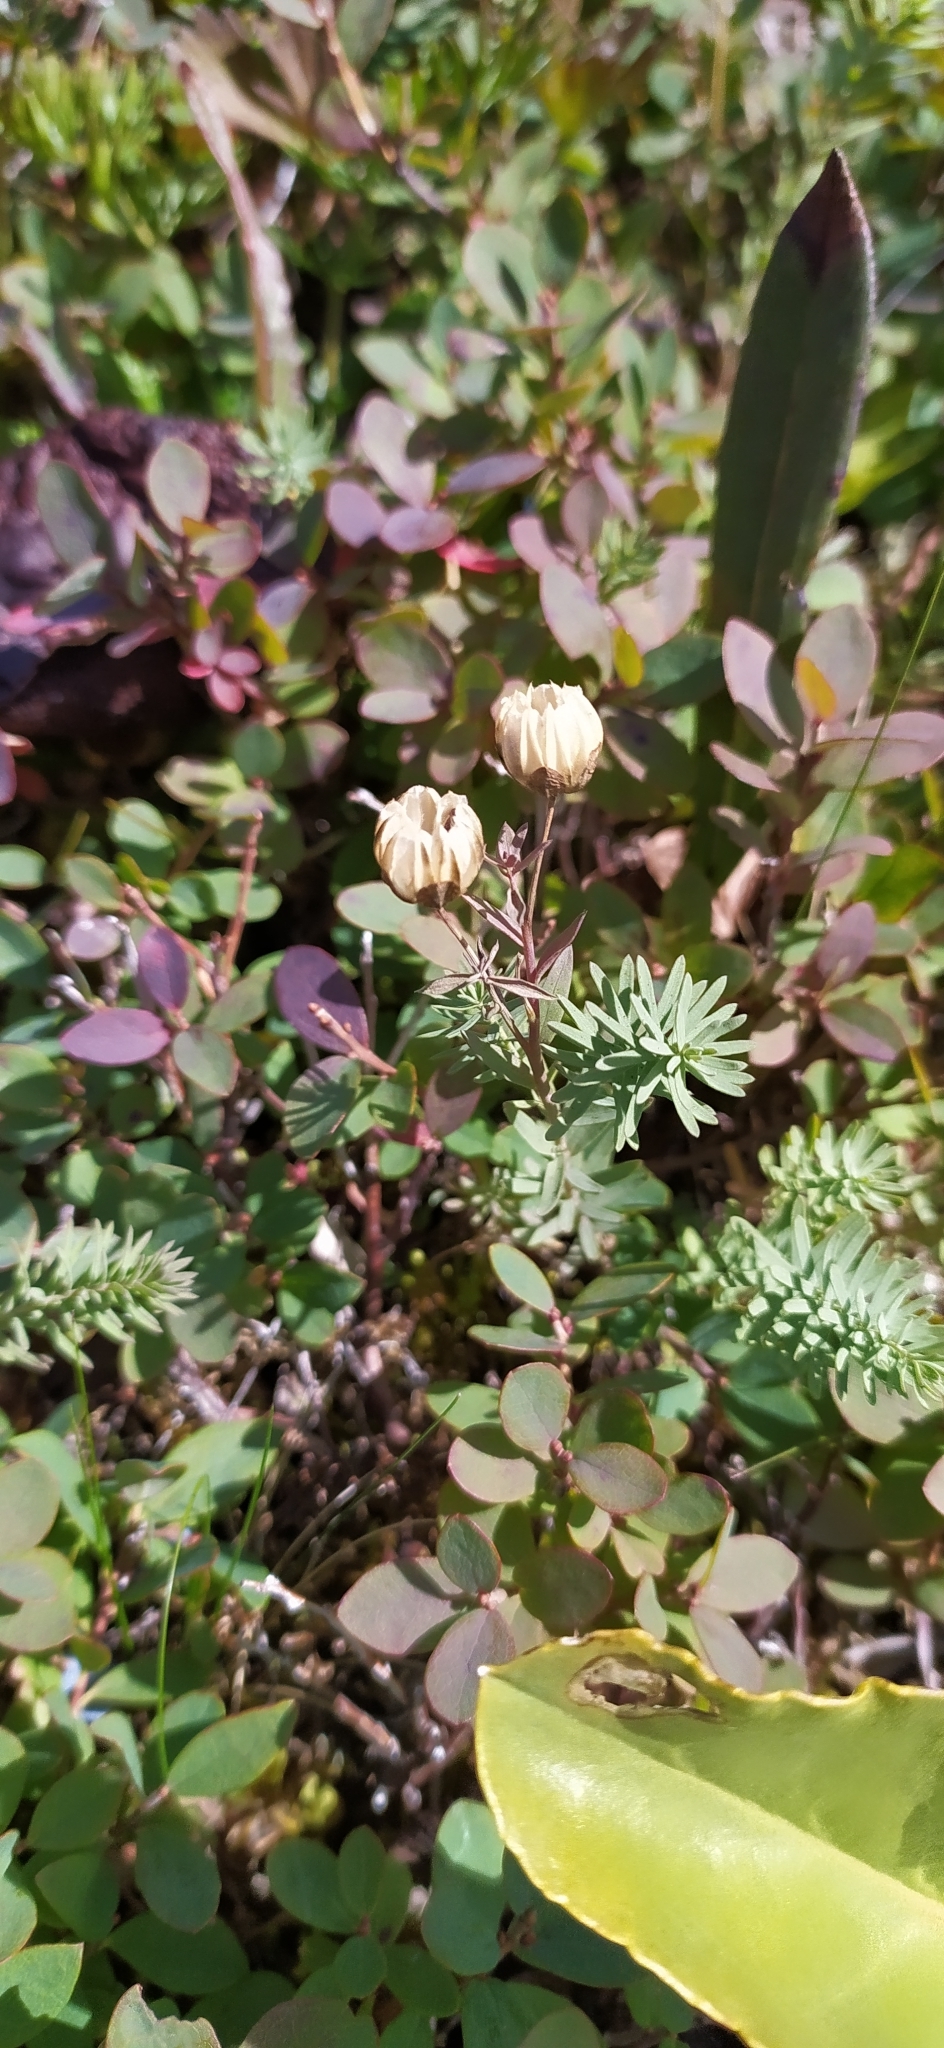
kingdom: Plantae
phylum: Tracheophyta
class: Magnoliopsida
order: Malpighiales
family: Linaceae
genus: Linum
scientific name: Linum komarovii
